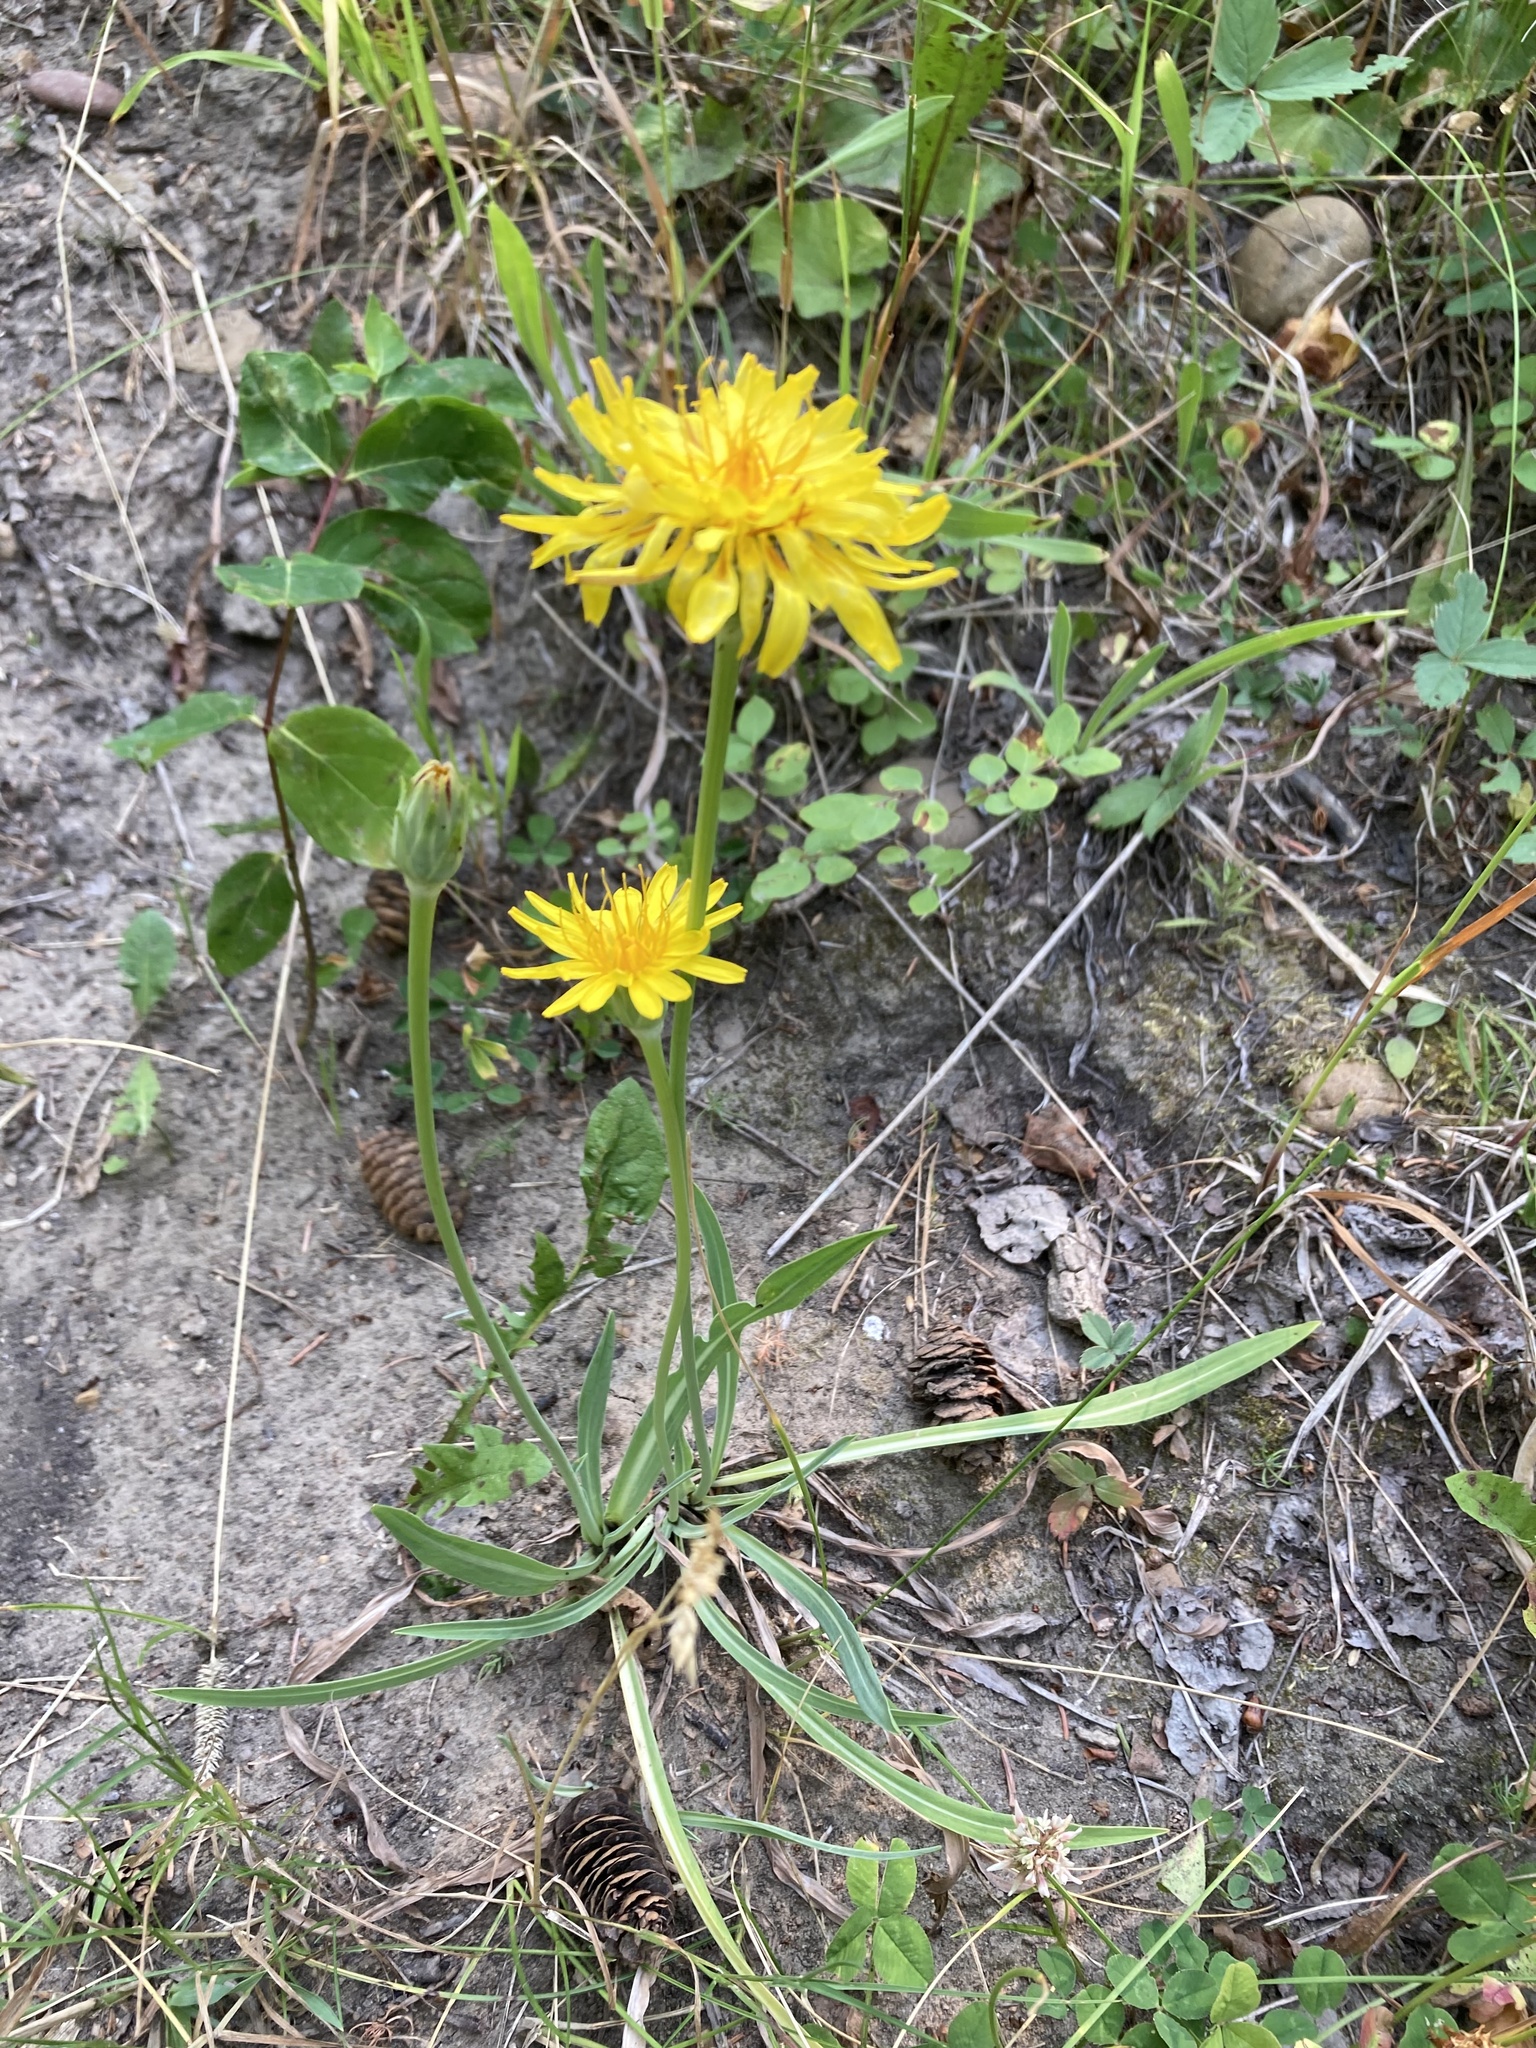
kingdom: Plantae
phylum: Tracheophyta
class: Magnoliopsida
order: Asterales
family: Asteraceae
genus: Agoseris
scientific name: Agoseris glauca
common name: Prairie agoseris
